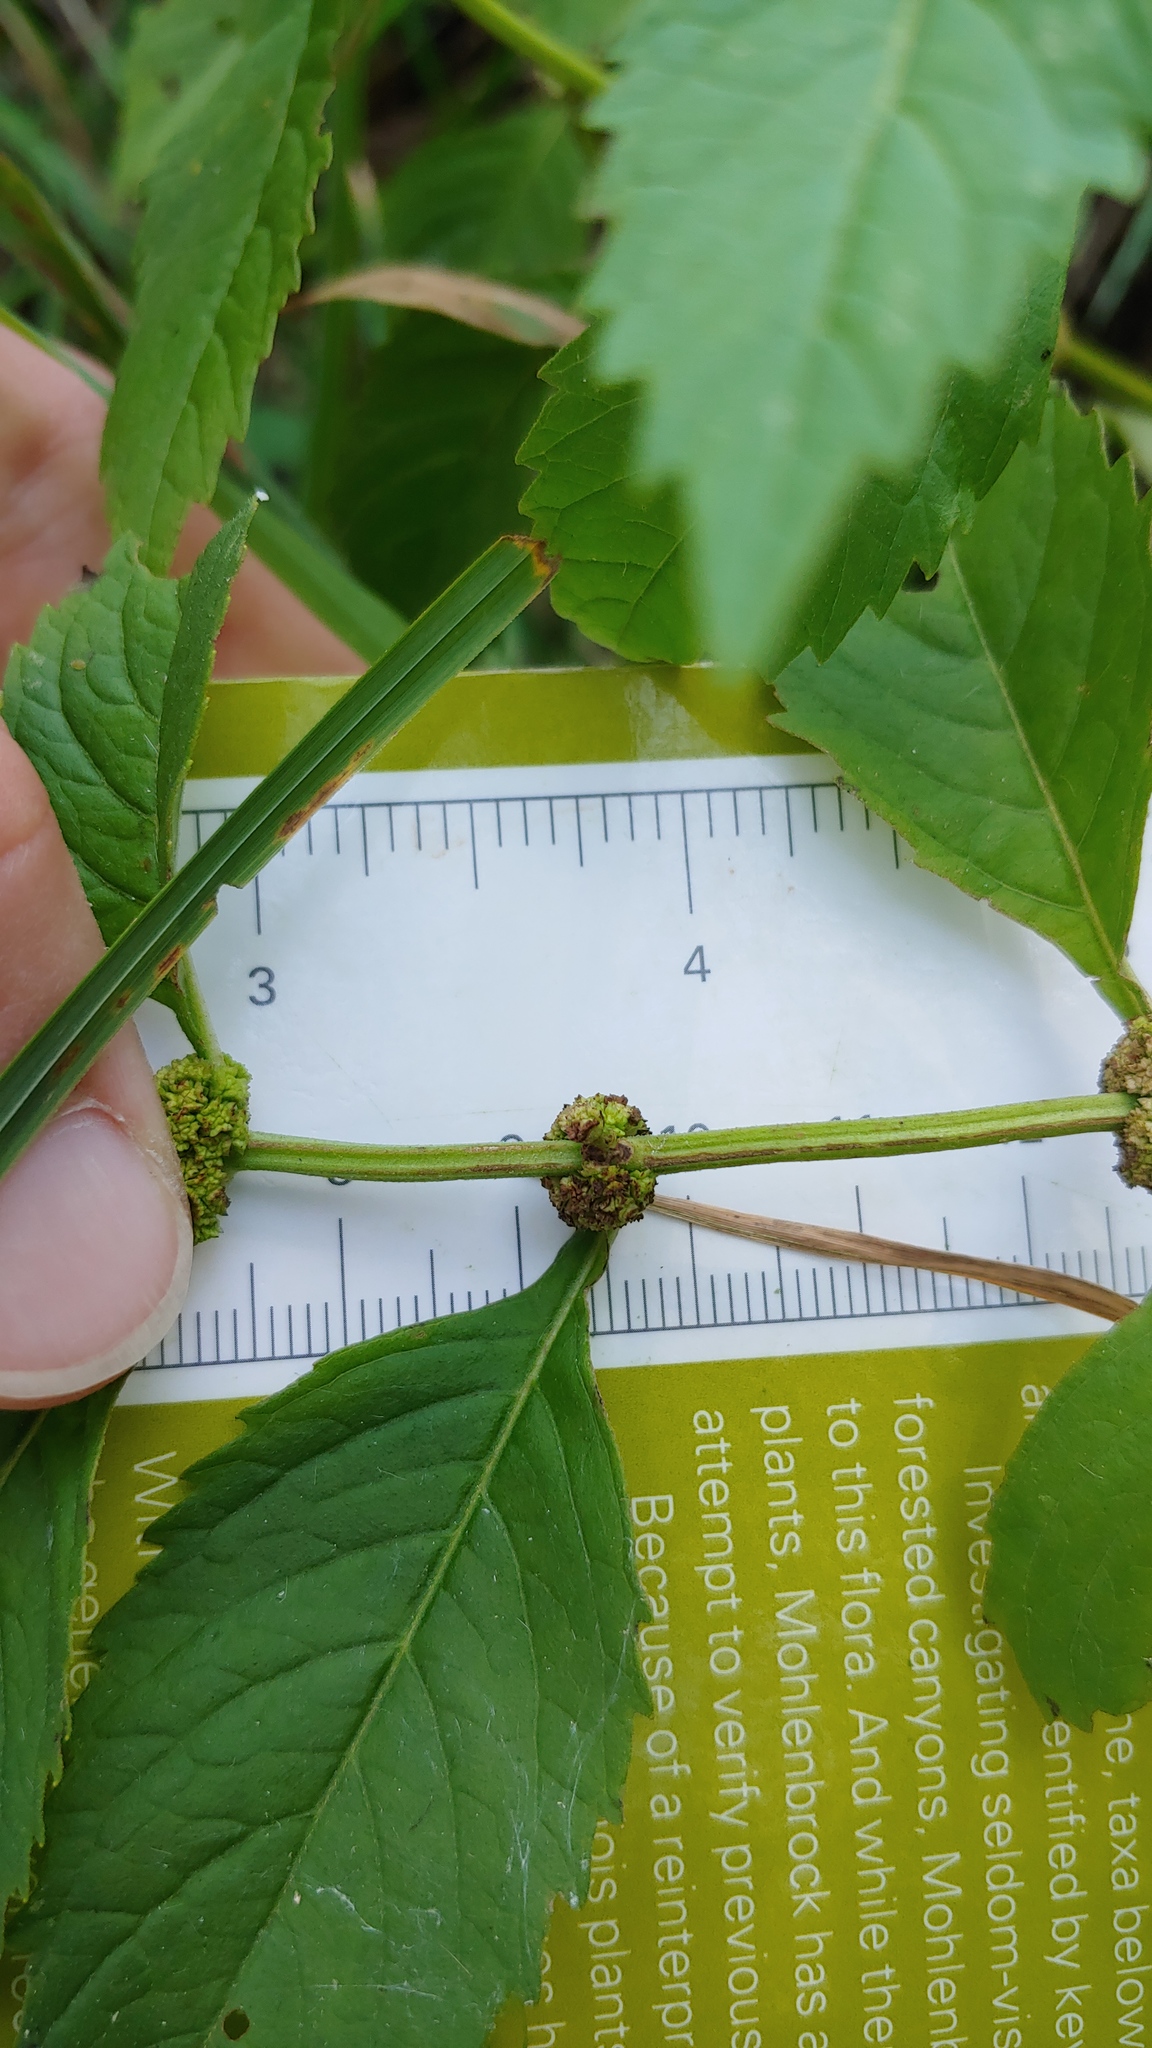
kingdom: Plantae
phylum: Tracheophyta
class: Magnoliopsida
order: Lamiales
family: Lamiaceae
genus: Lycopus
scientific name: Lycopus virginicus
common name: Bugleweed
